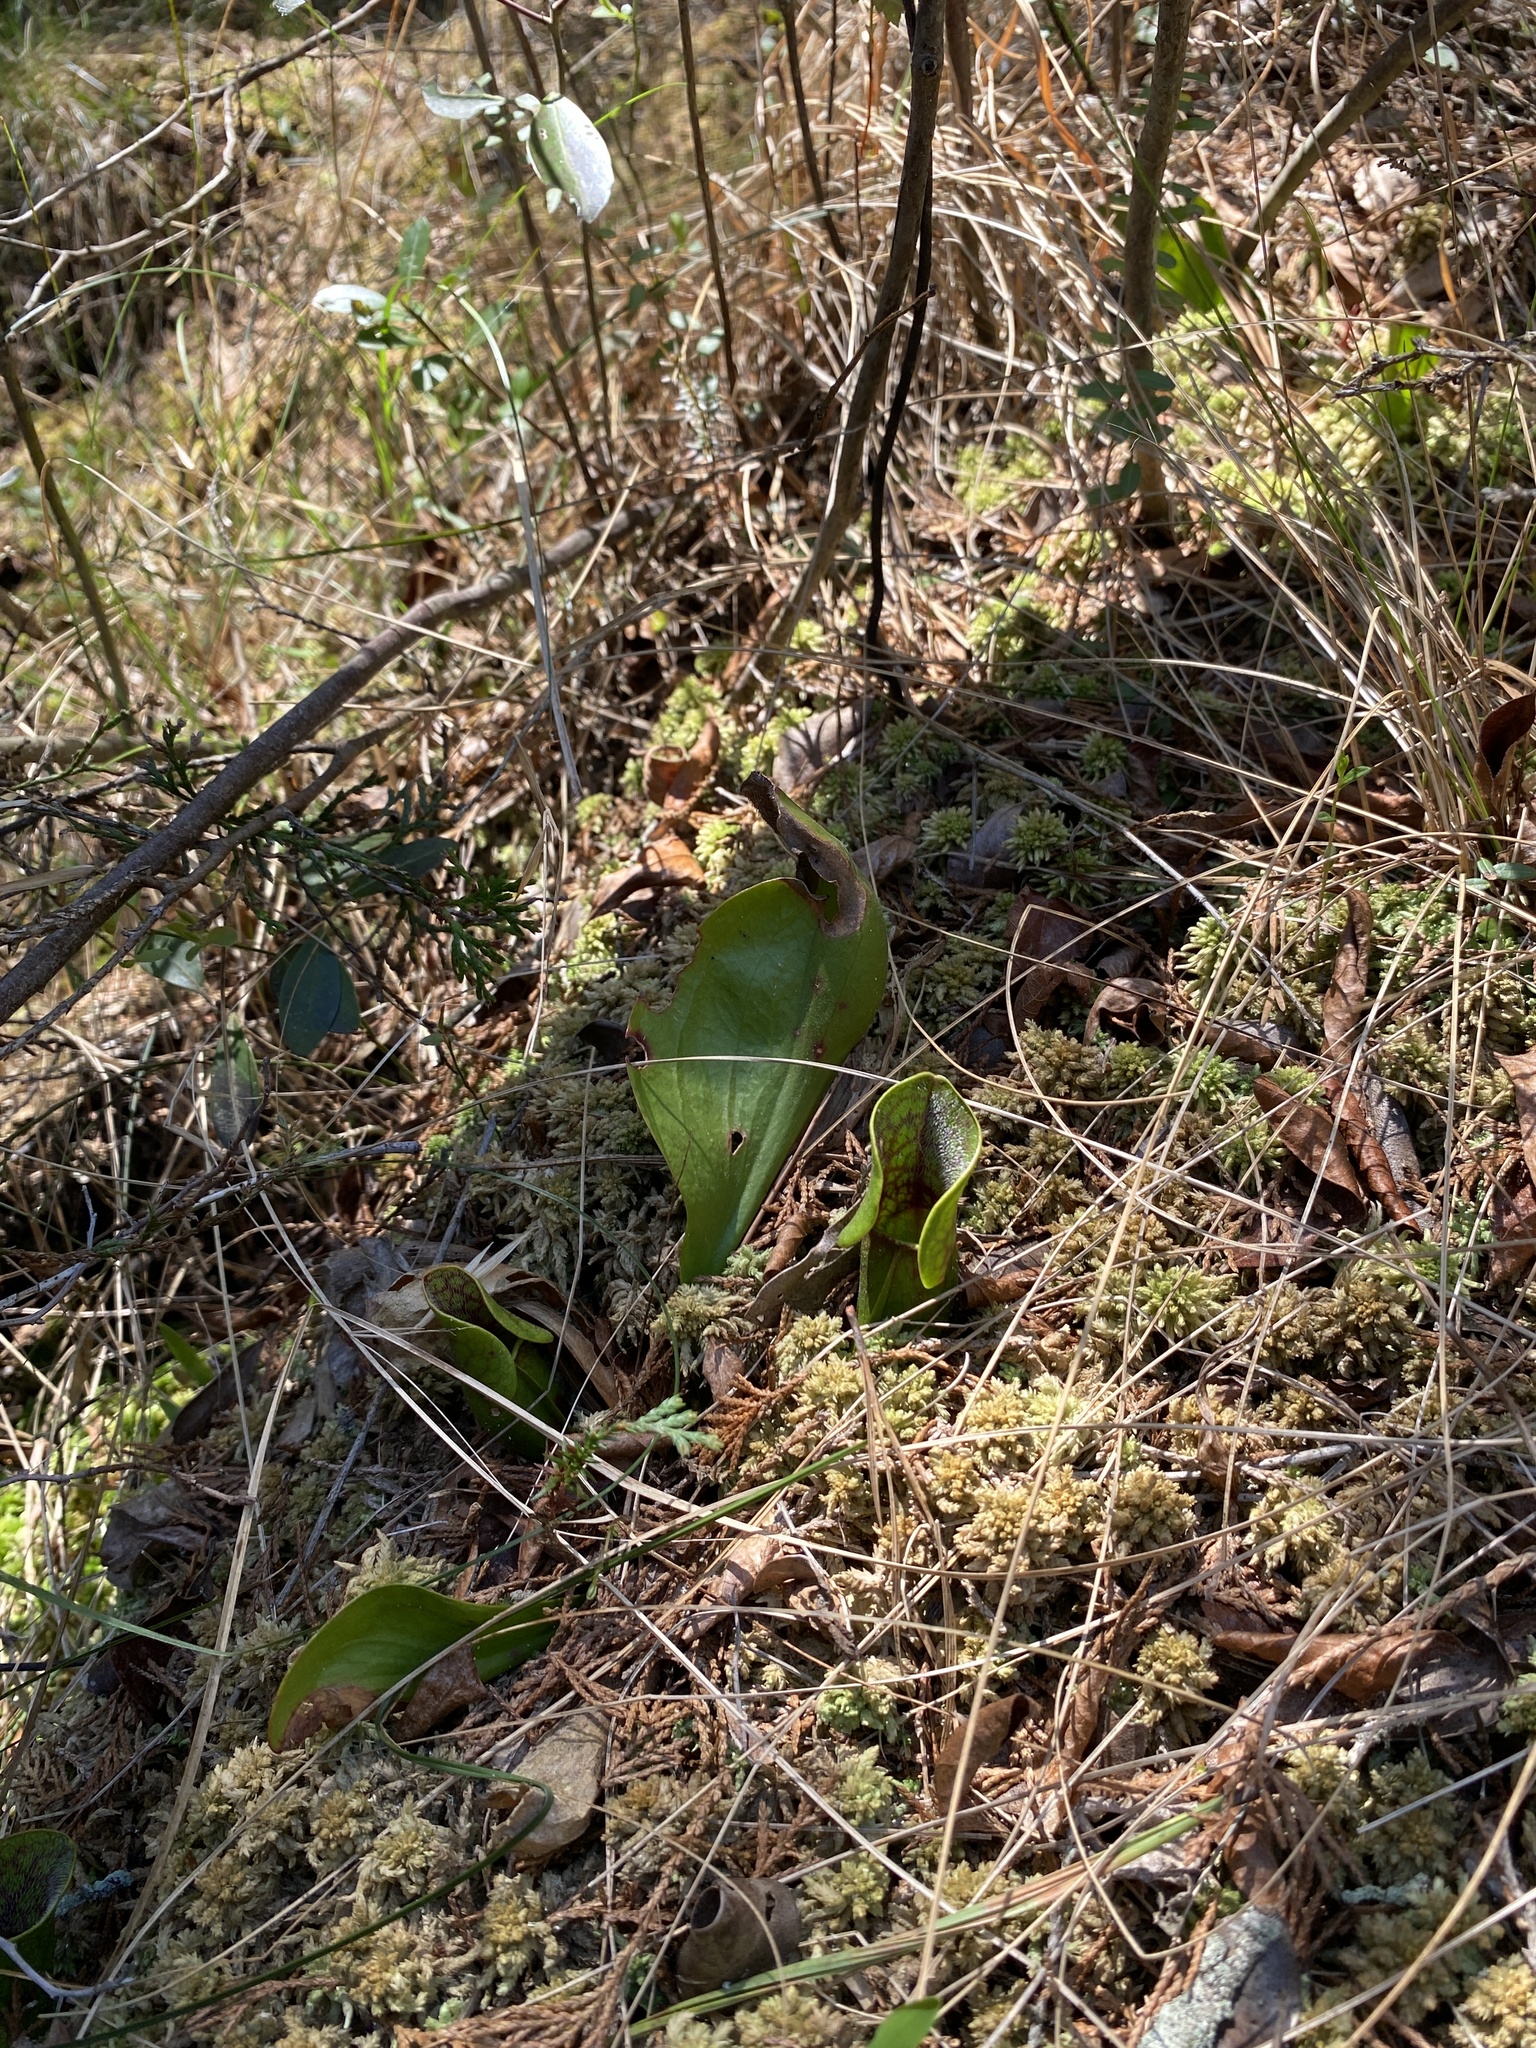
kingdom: Plantae
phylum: Tracheophyta
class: Magnoliopsida
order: Ericales
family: Sarraceniaceae
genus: Sarracenia
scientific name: Sarracenia purpurea
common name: Pitcherplant
